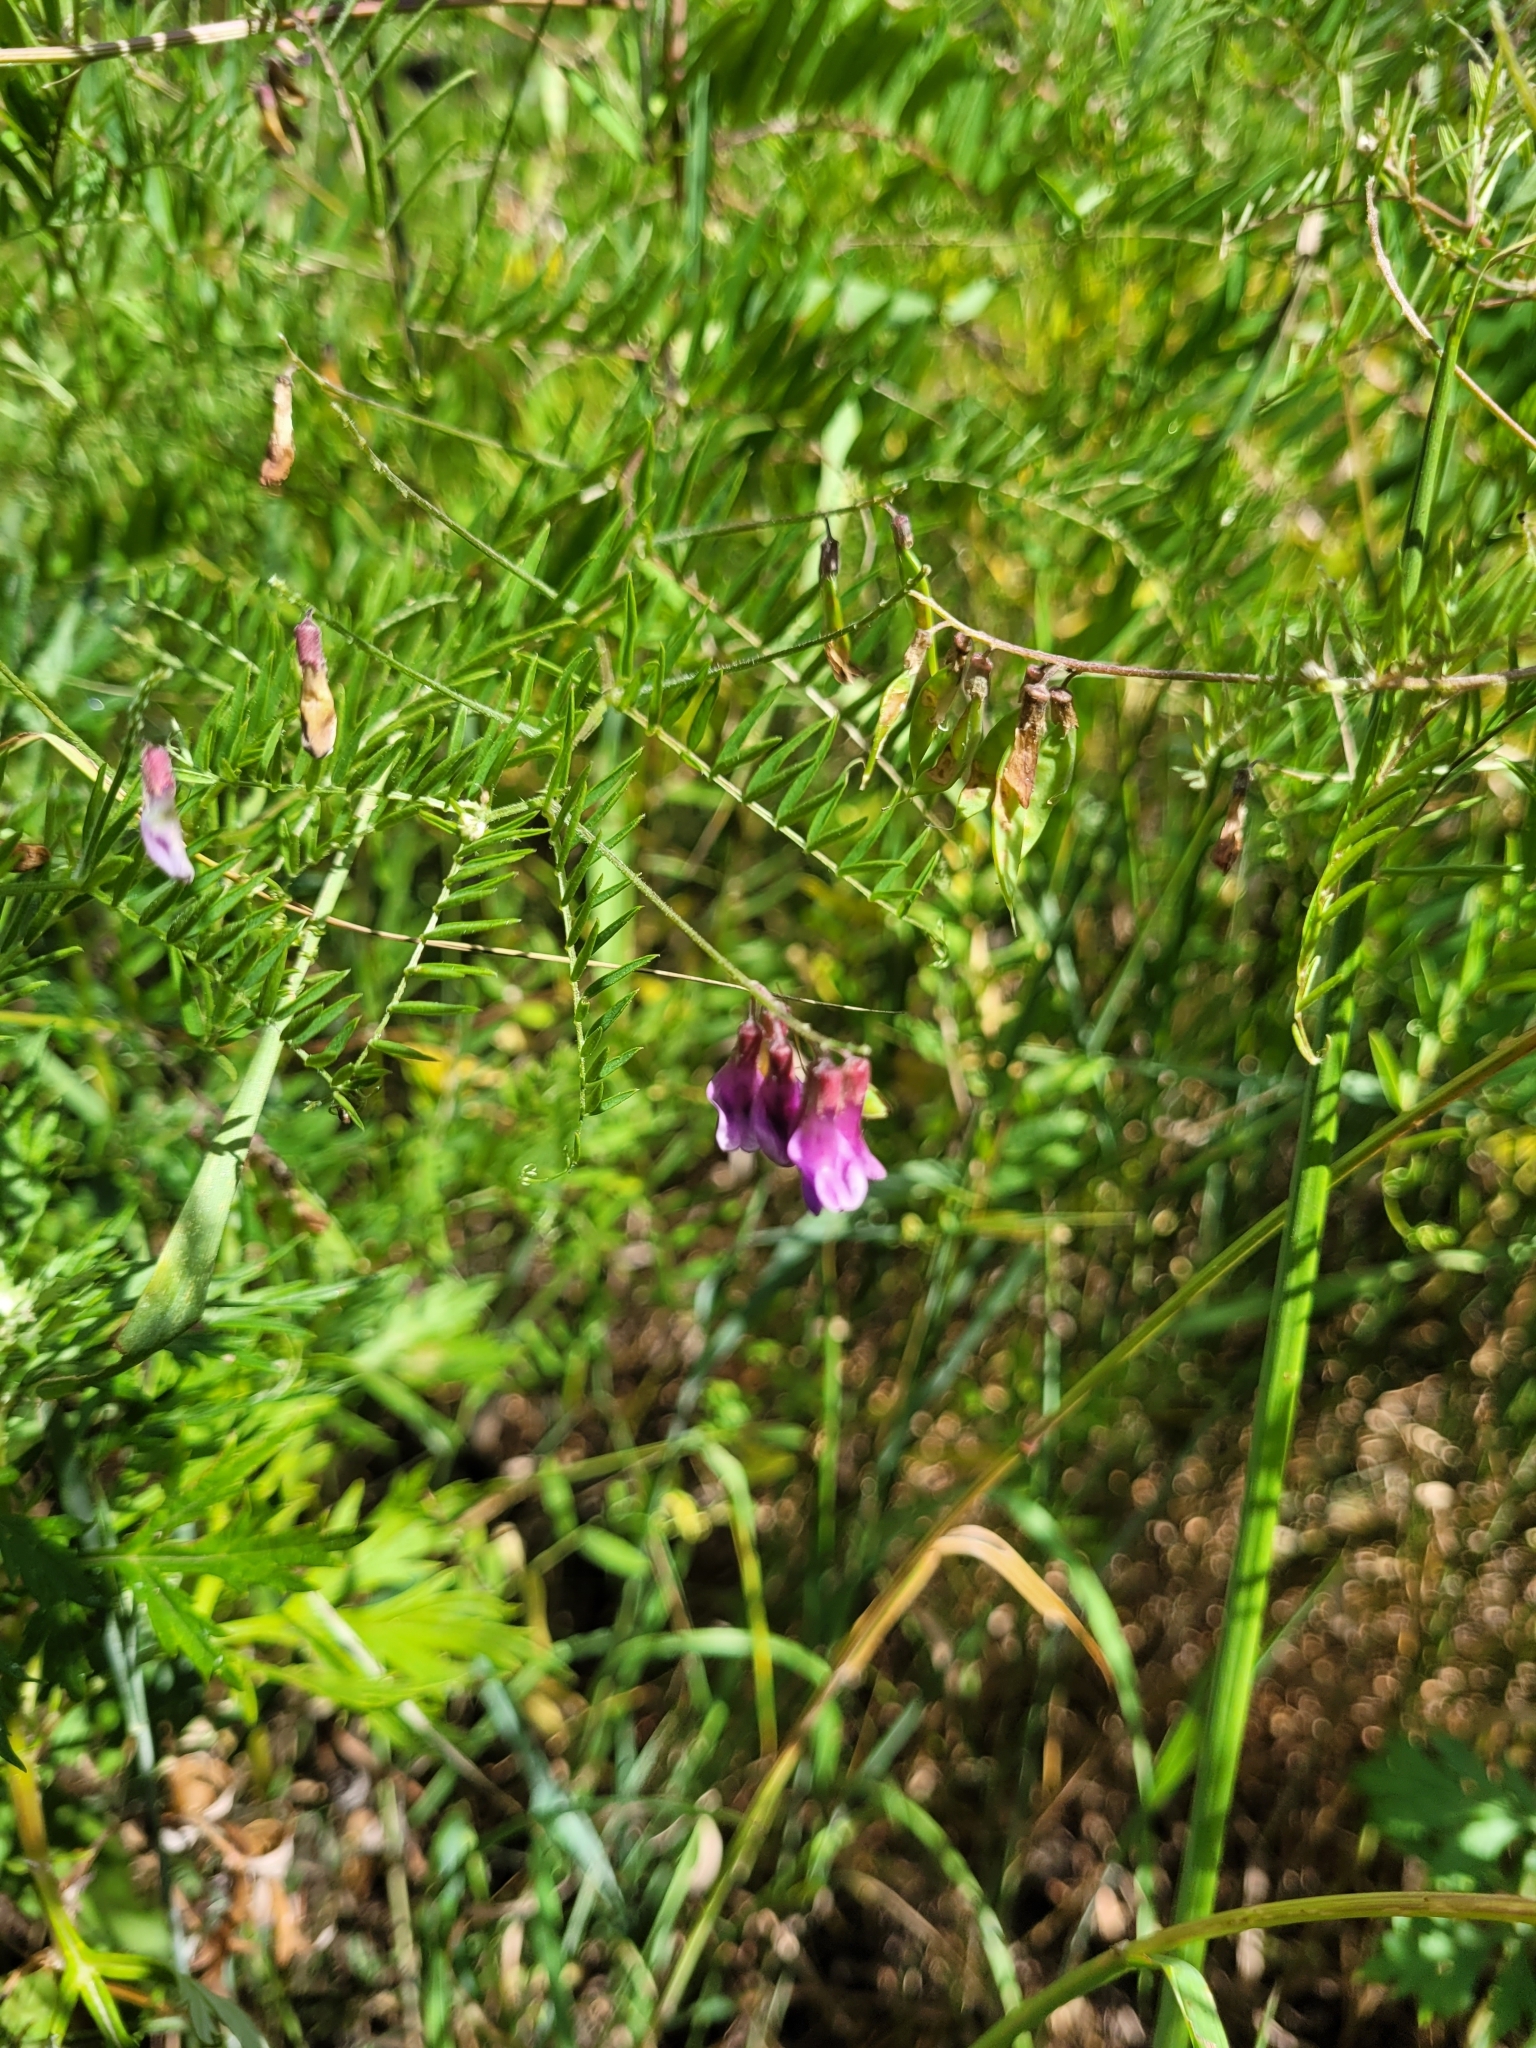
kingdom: Plantae
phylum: Tracheophyta
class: Magnoliopsida
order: Fabales
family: Fabaceae
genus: Vicia
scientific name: Vicia megalotropis
